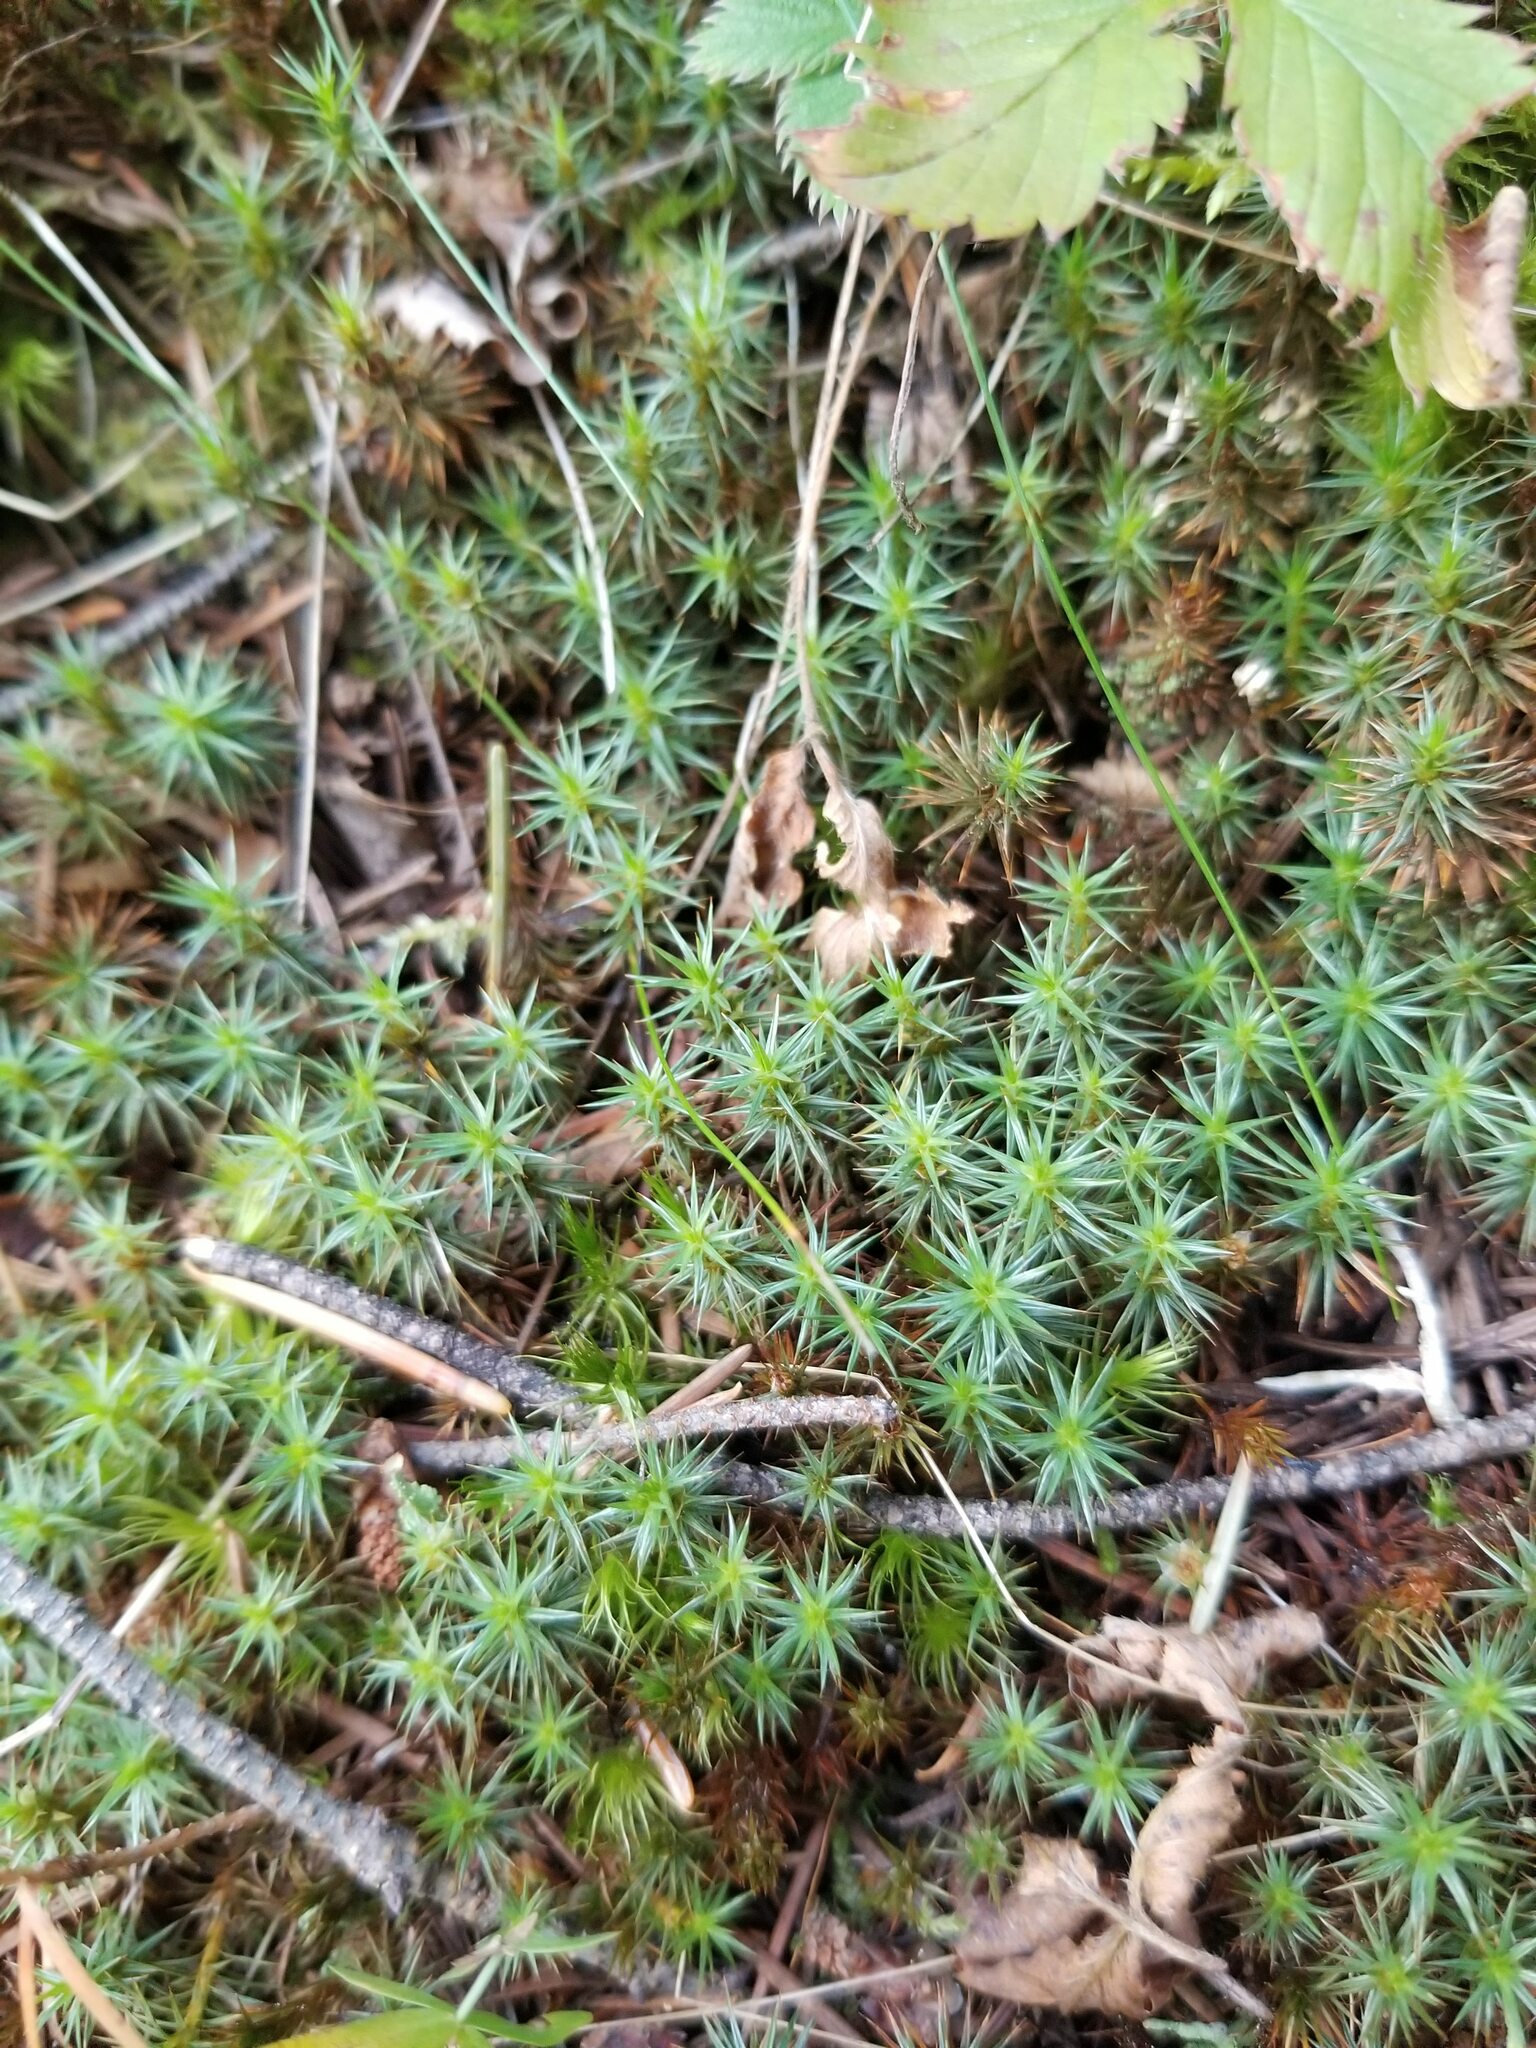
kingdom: Plantae
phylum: Bryophyta
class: Polytrichopsida
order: Polytrichales
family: Polytrichaceae
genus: Polytrichum
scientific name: Polytrichum juniperinum
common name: Juniper haircap moss
